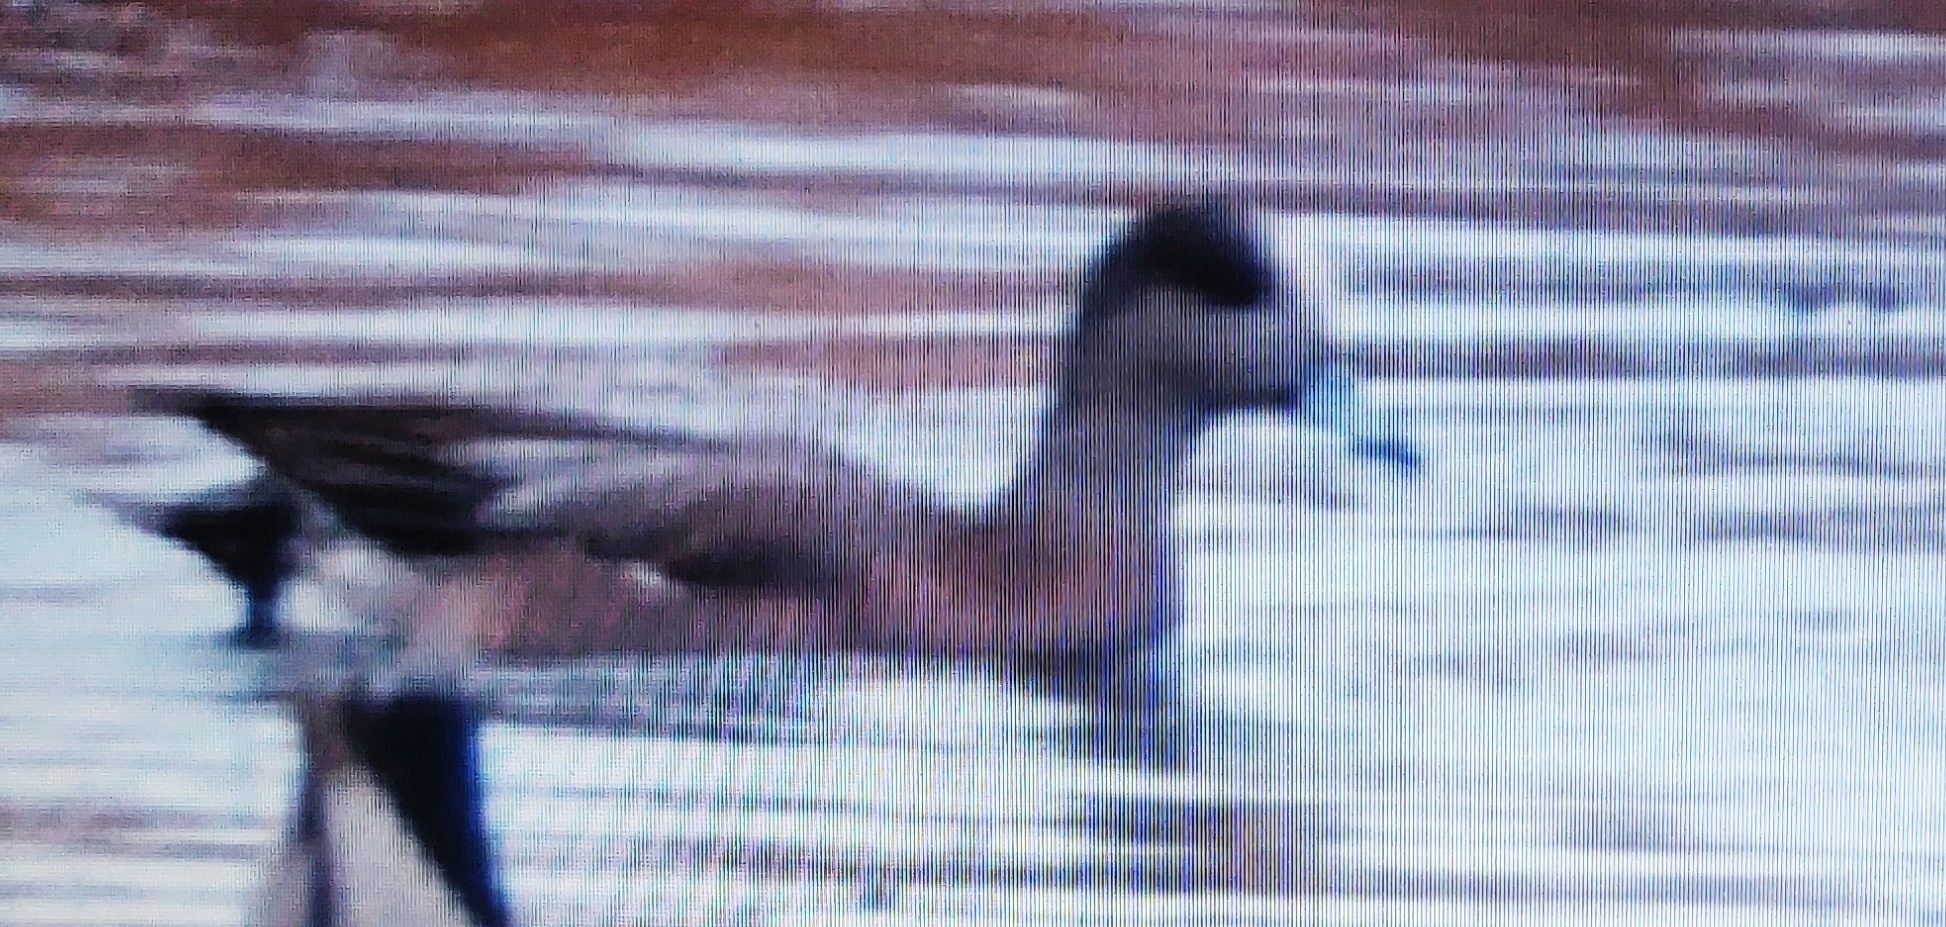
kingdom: Animalia
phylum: Chordata
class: Aves
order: Anseriformes
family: Anatidae
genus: Mareca
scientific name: Mareca americana
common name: American wigeon
